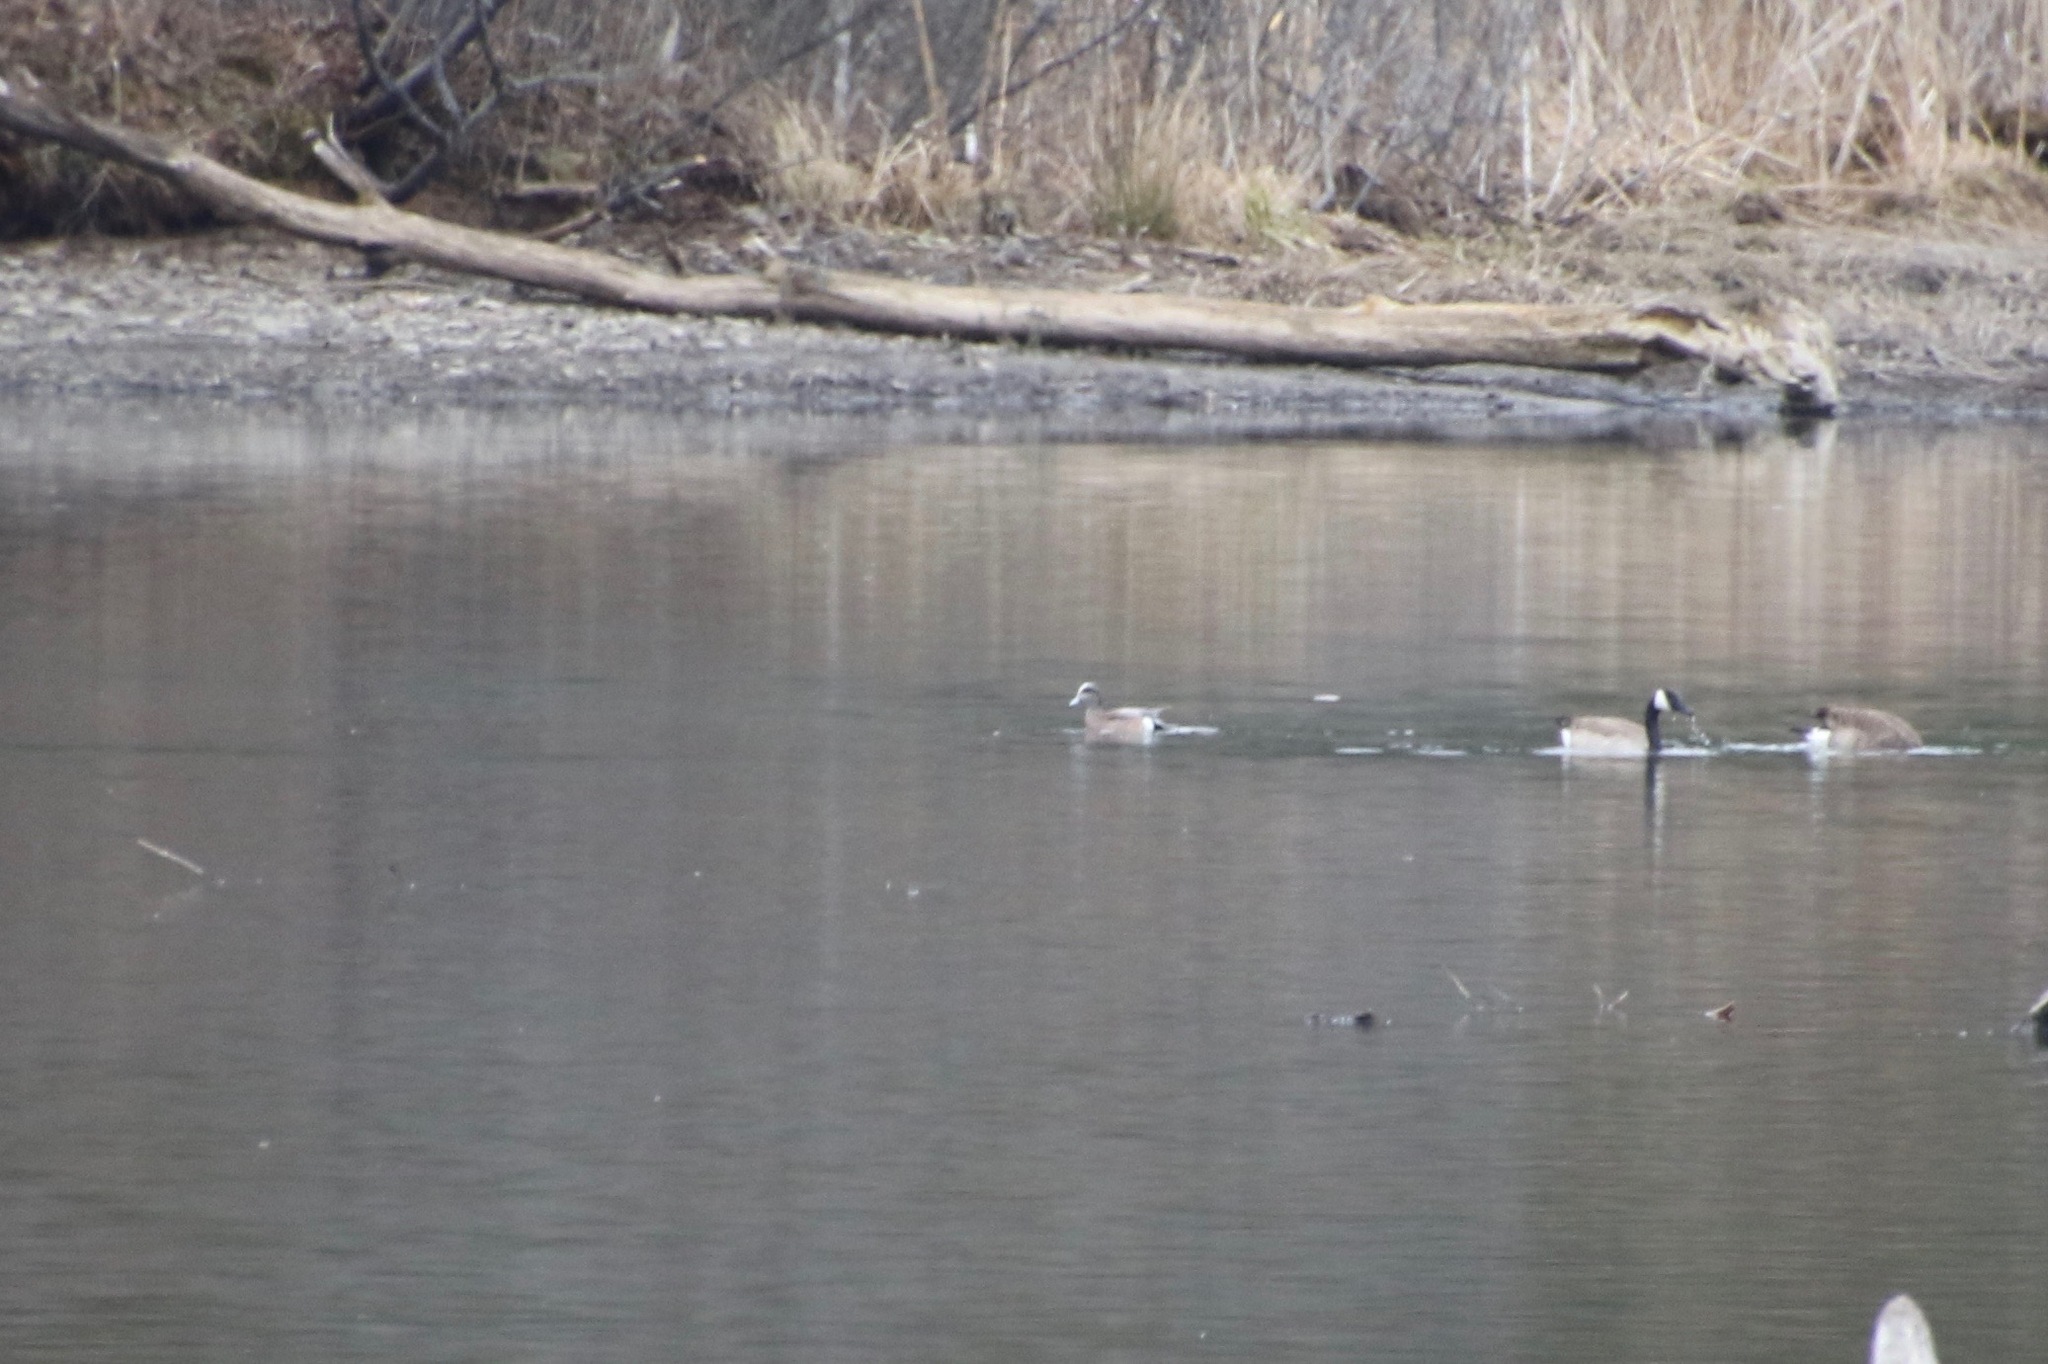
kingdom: Animalia
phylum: Chordata
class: Aves
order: Anseriformes
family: Anatidae
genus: Mareca
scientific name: Mareca americana
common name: American wigeon
